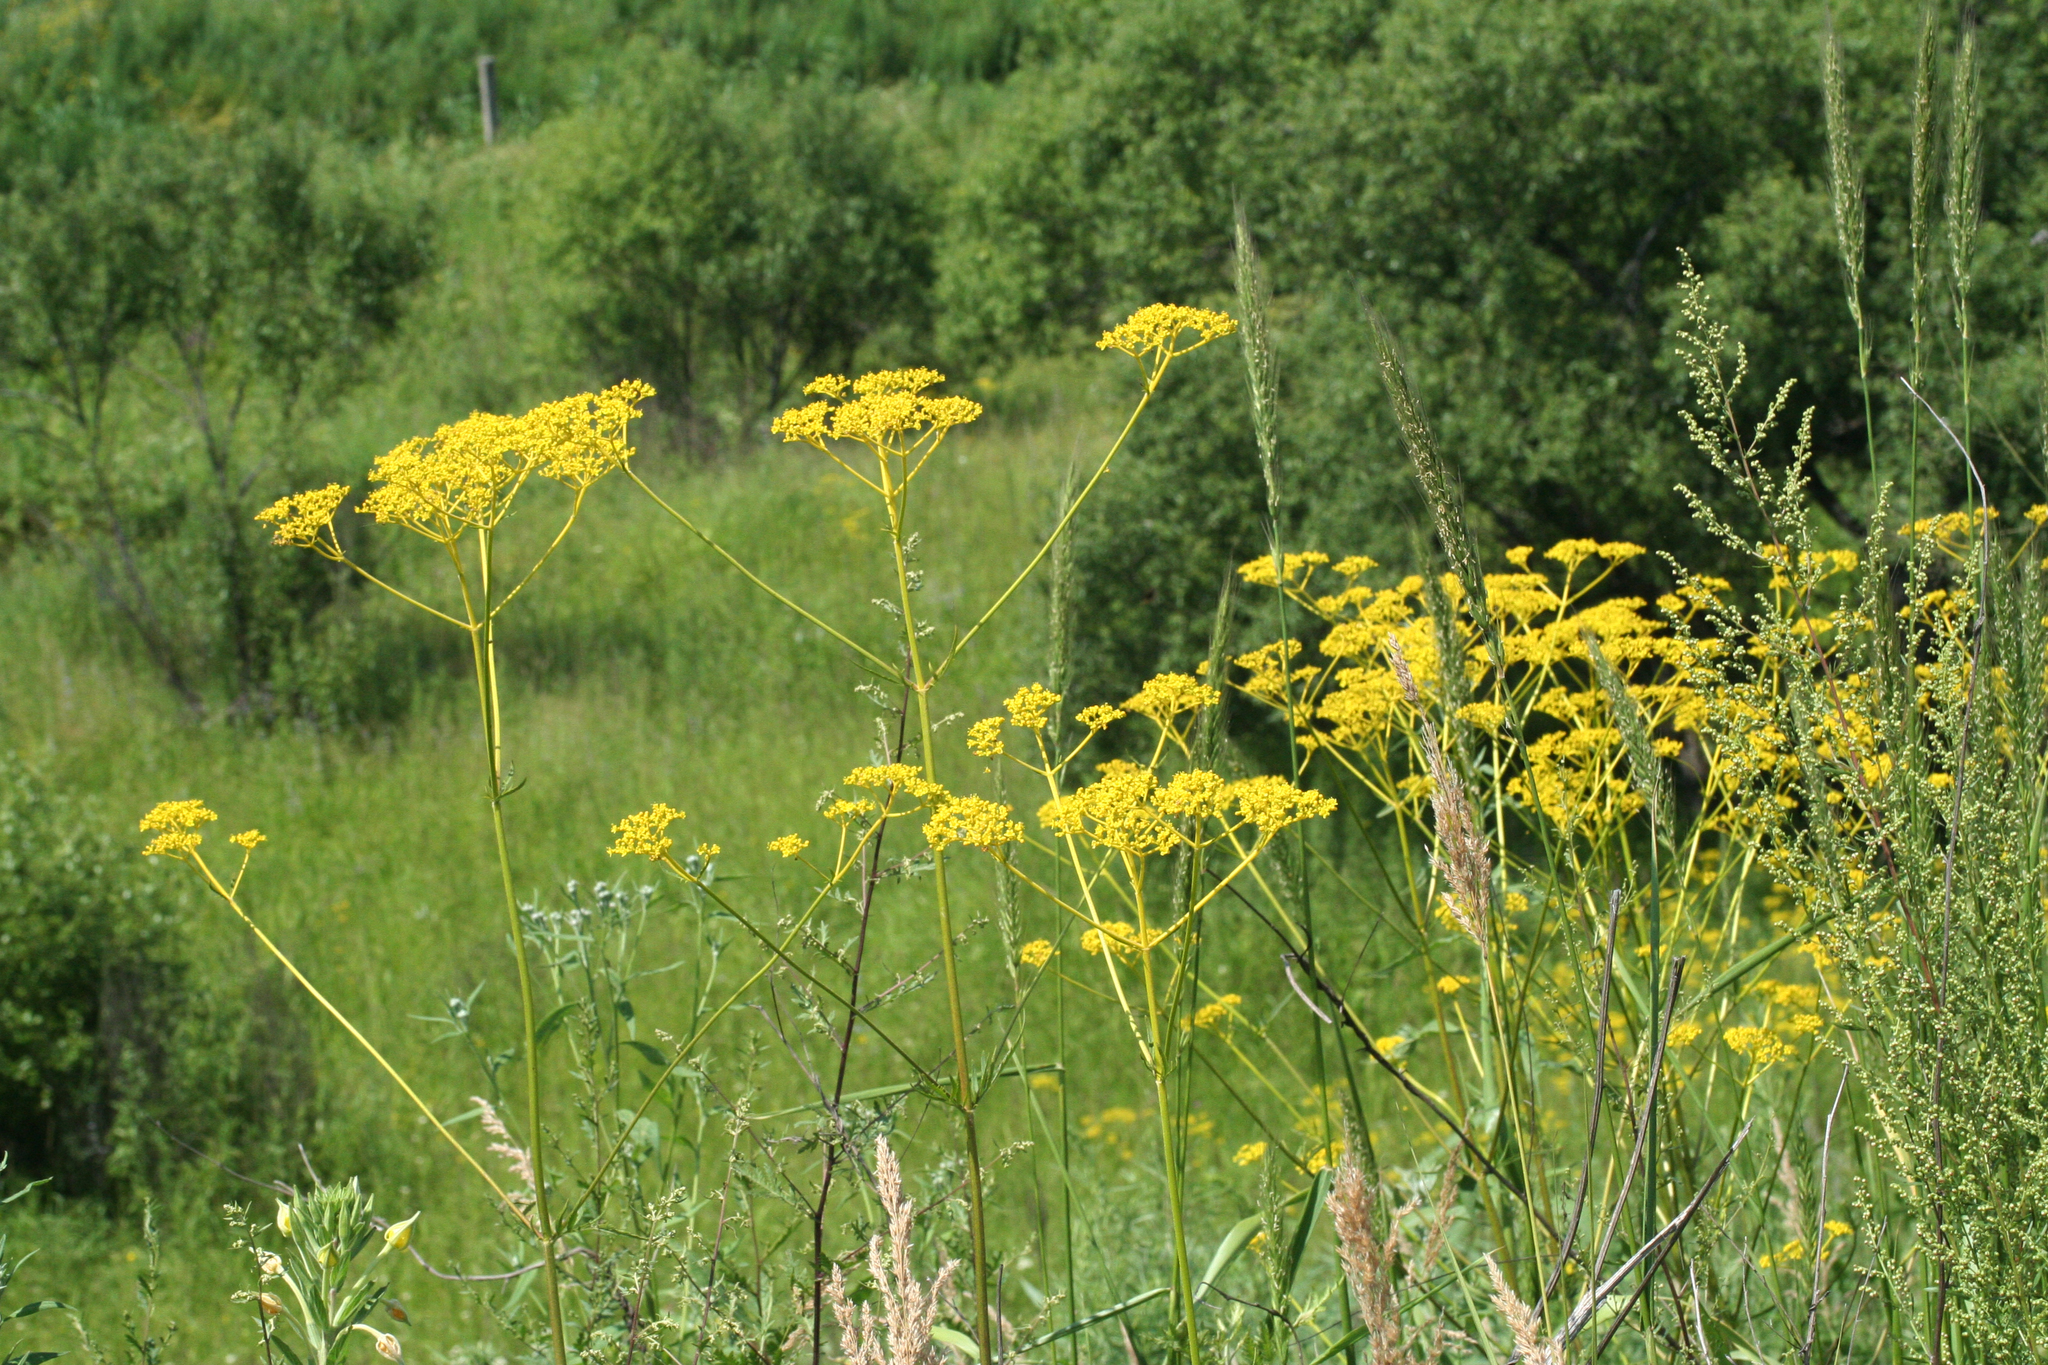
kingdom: Plantae
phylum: Tracheophyta
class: Magnoliopsida
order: Dipsacales
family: Caprifoliaceae
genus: Patrinia
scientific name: Patrinia scabiosifolia
